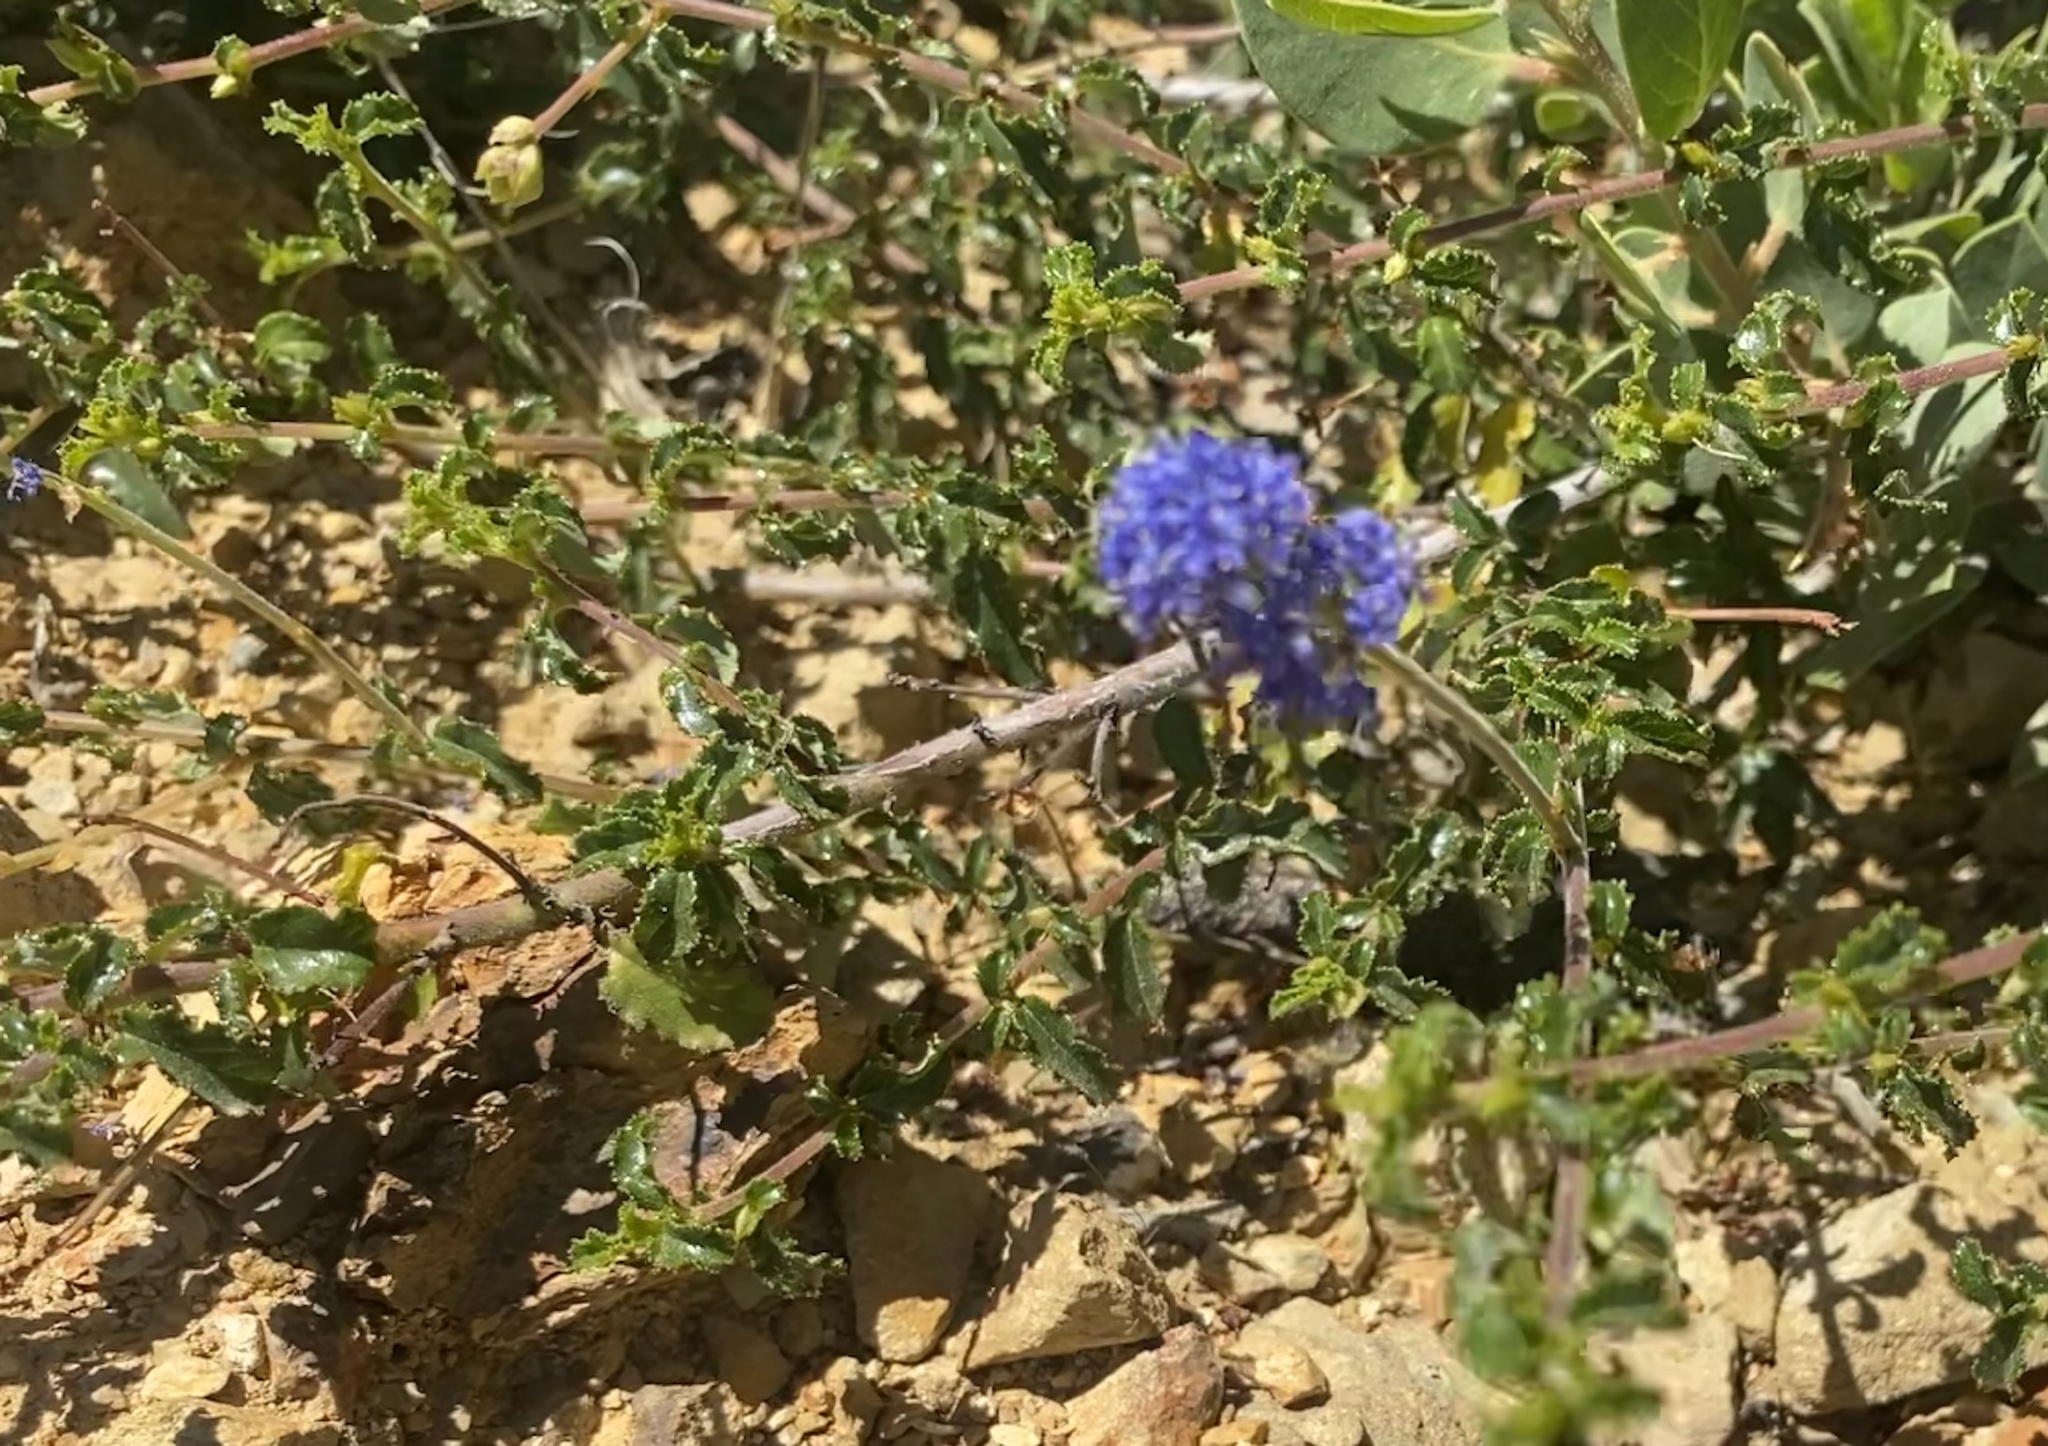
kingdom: Plantae
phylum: Tracheophyta
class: Magnoliopsida
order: Rosales
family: Rhamnaceae
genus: Ceanothus
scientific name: Ceanothus foliosus
